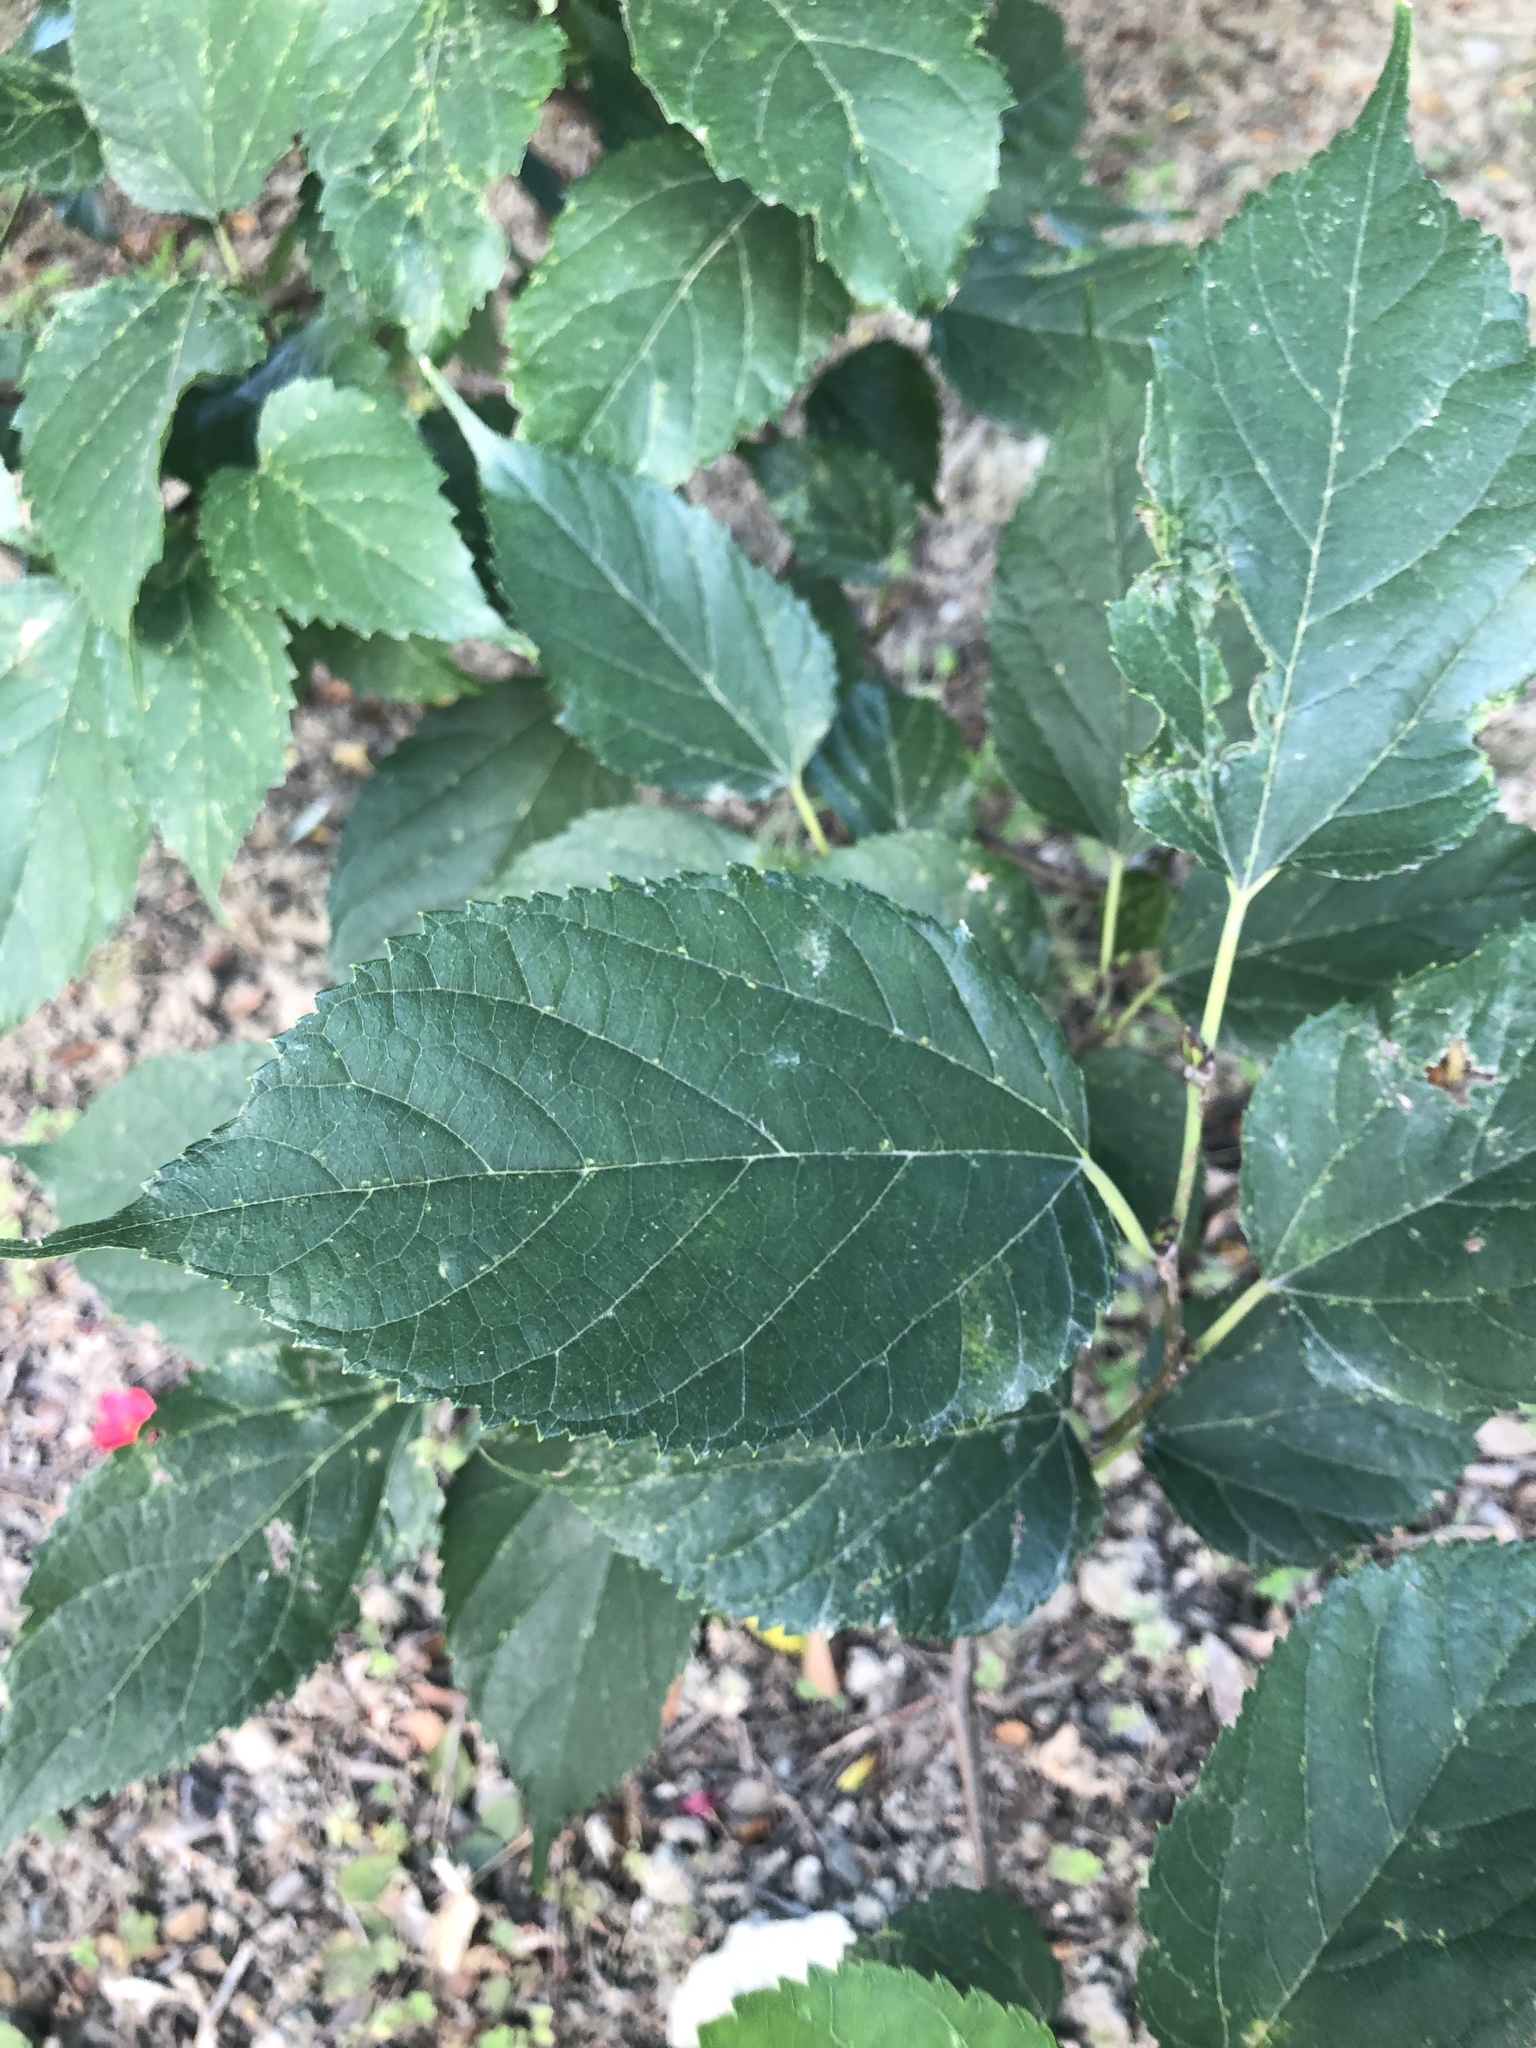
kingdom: Plantae
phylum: Tracheophyta
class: Magnoliopsida
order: Rosales
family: Moraceae
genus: Morus
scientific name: Morus indica
